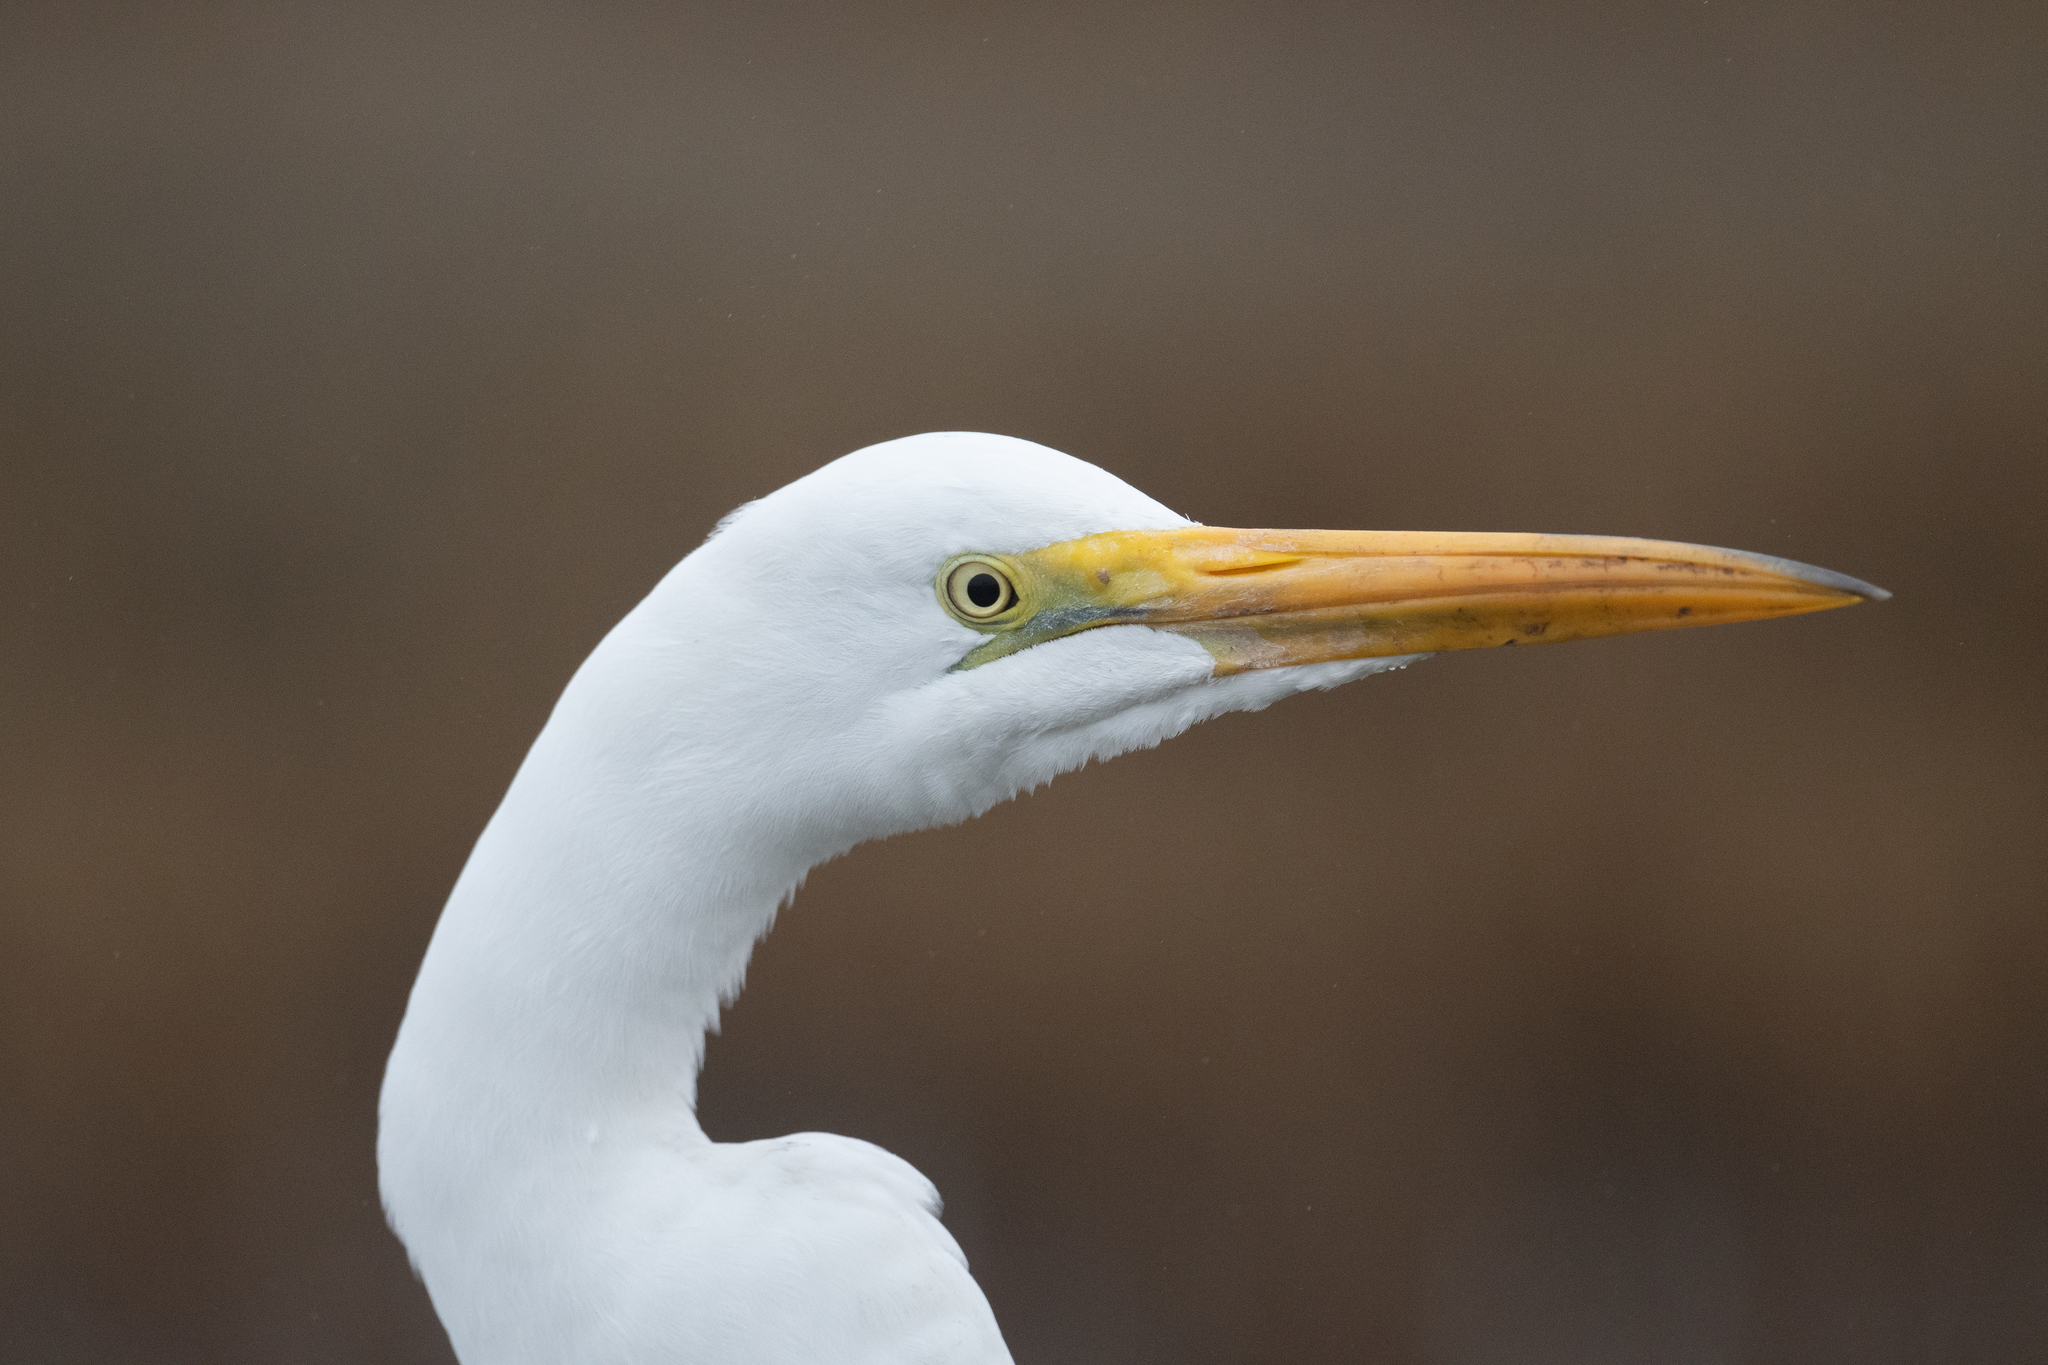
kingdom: Animalia
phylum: Chordata
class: Aves
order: Pelecaniformes
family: Ardeidae
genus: Ardea
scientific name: Ardea alba
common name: Great egret
